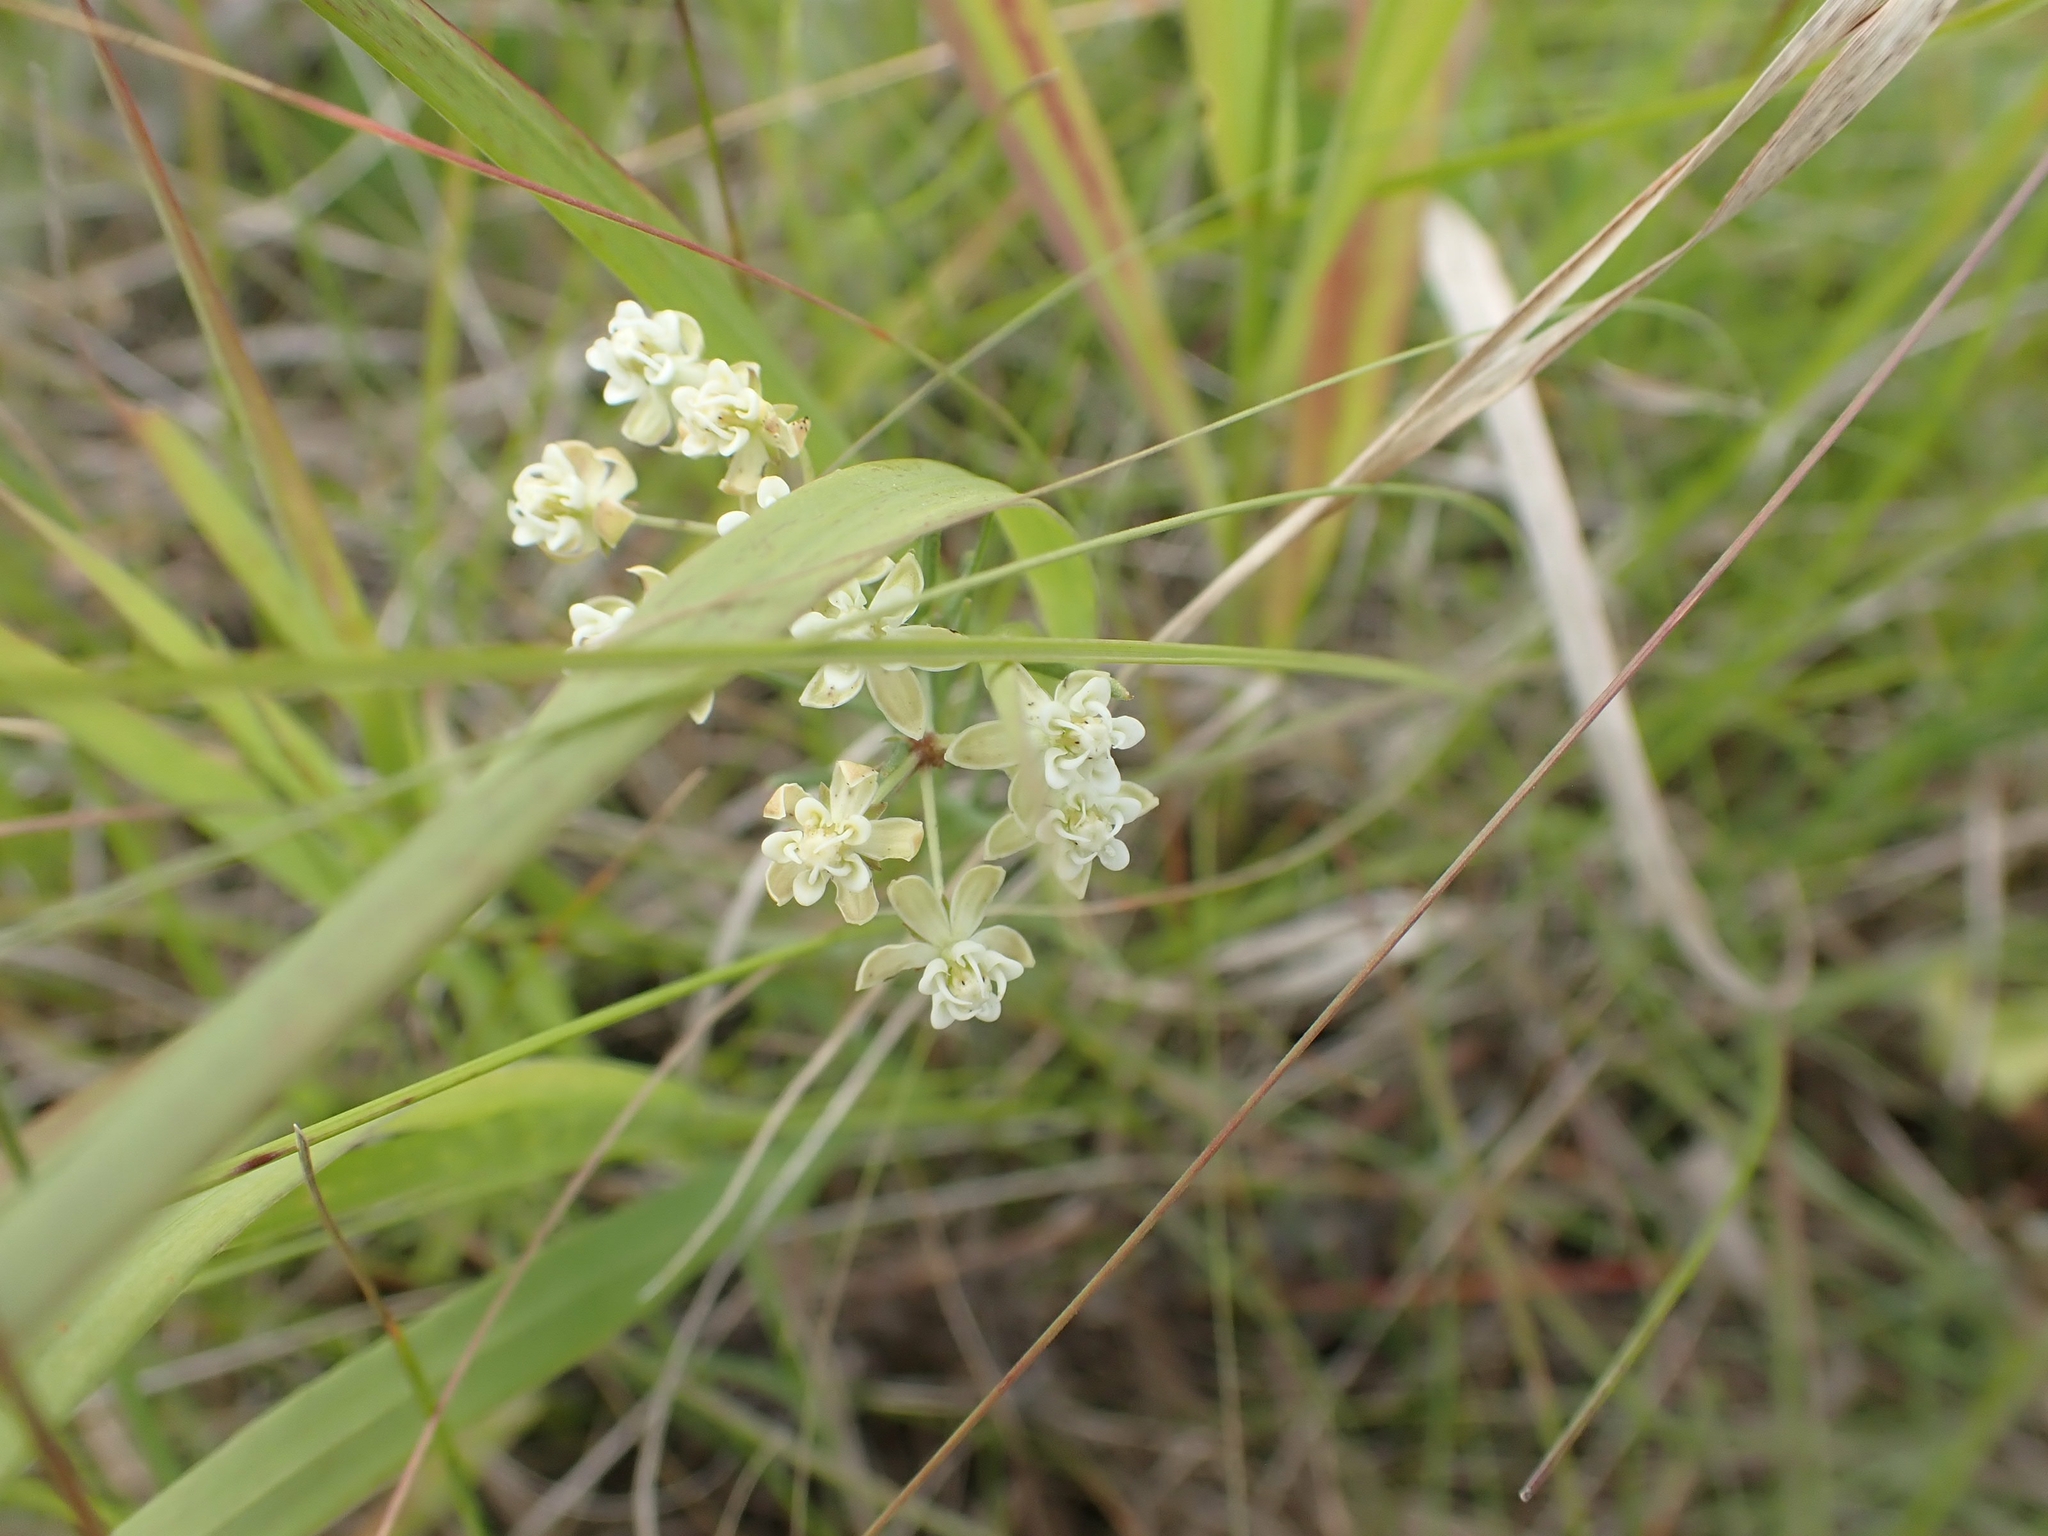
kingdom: Plantae
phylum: Tracheophyta
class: Magnoliopsida
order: Gentianales
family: Apocynaceae
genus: Asclepias
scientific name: Asclepias verticillata
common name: Eastern whorled milkweed
